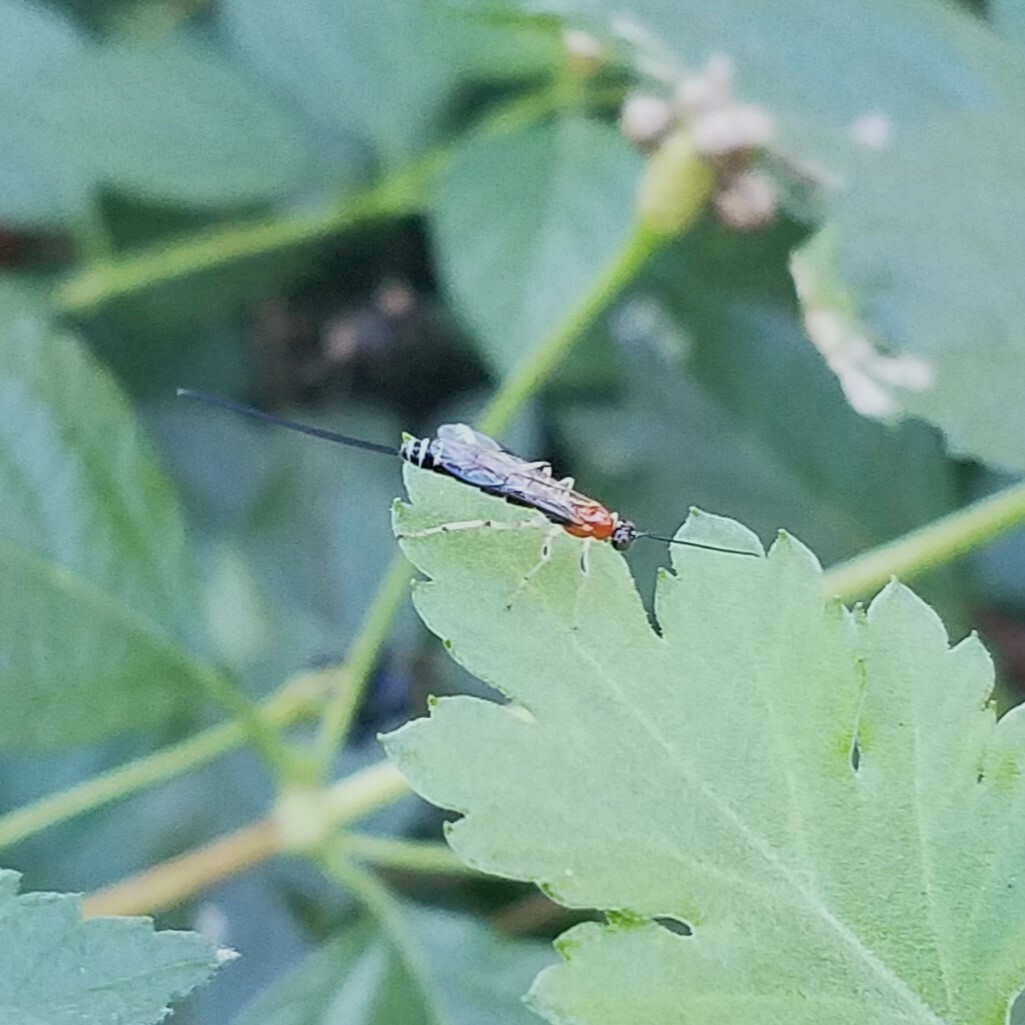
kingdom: Animalia
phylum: Arthropoda
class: Insecta
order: Hymenoptera
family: Ichneumonidae
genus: Calliephialtes
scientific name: Calliephialtes grapholithae
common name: Parasitoid wasp
